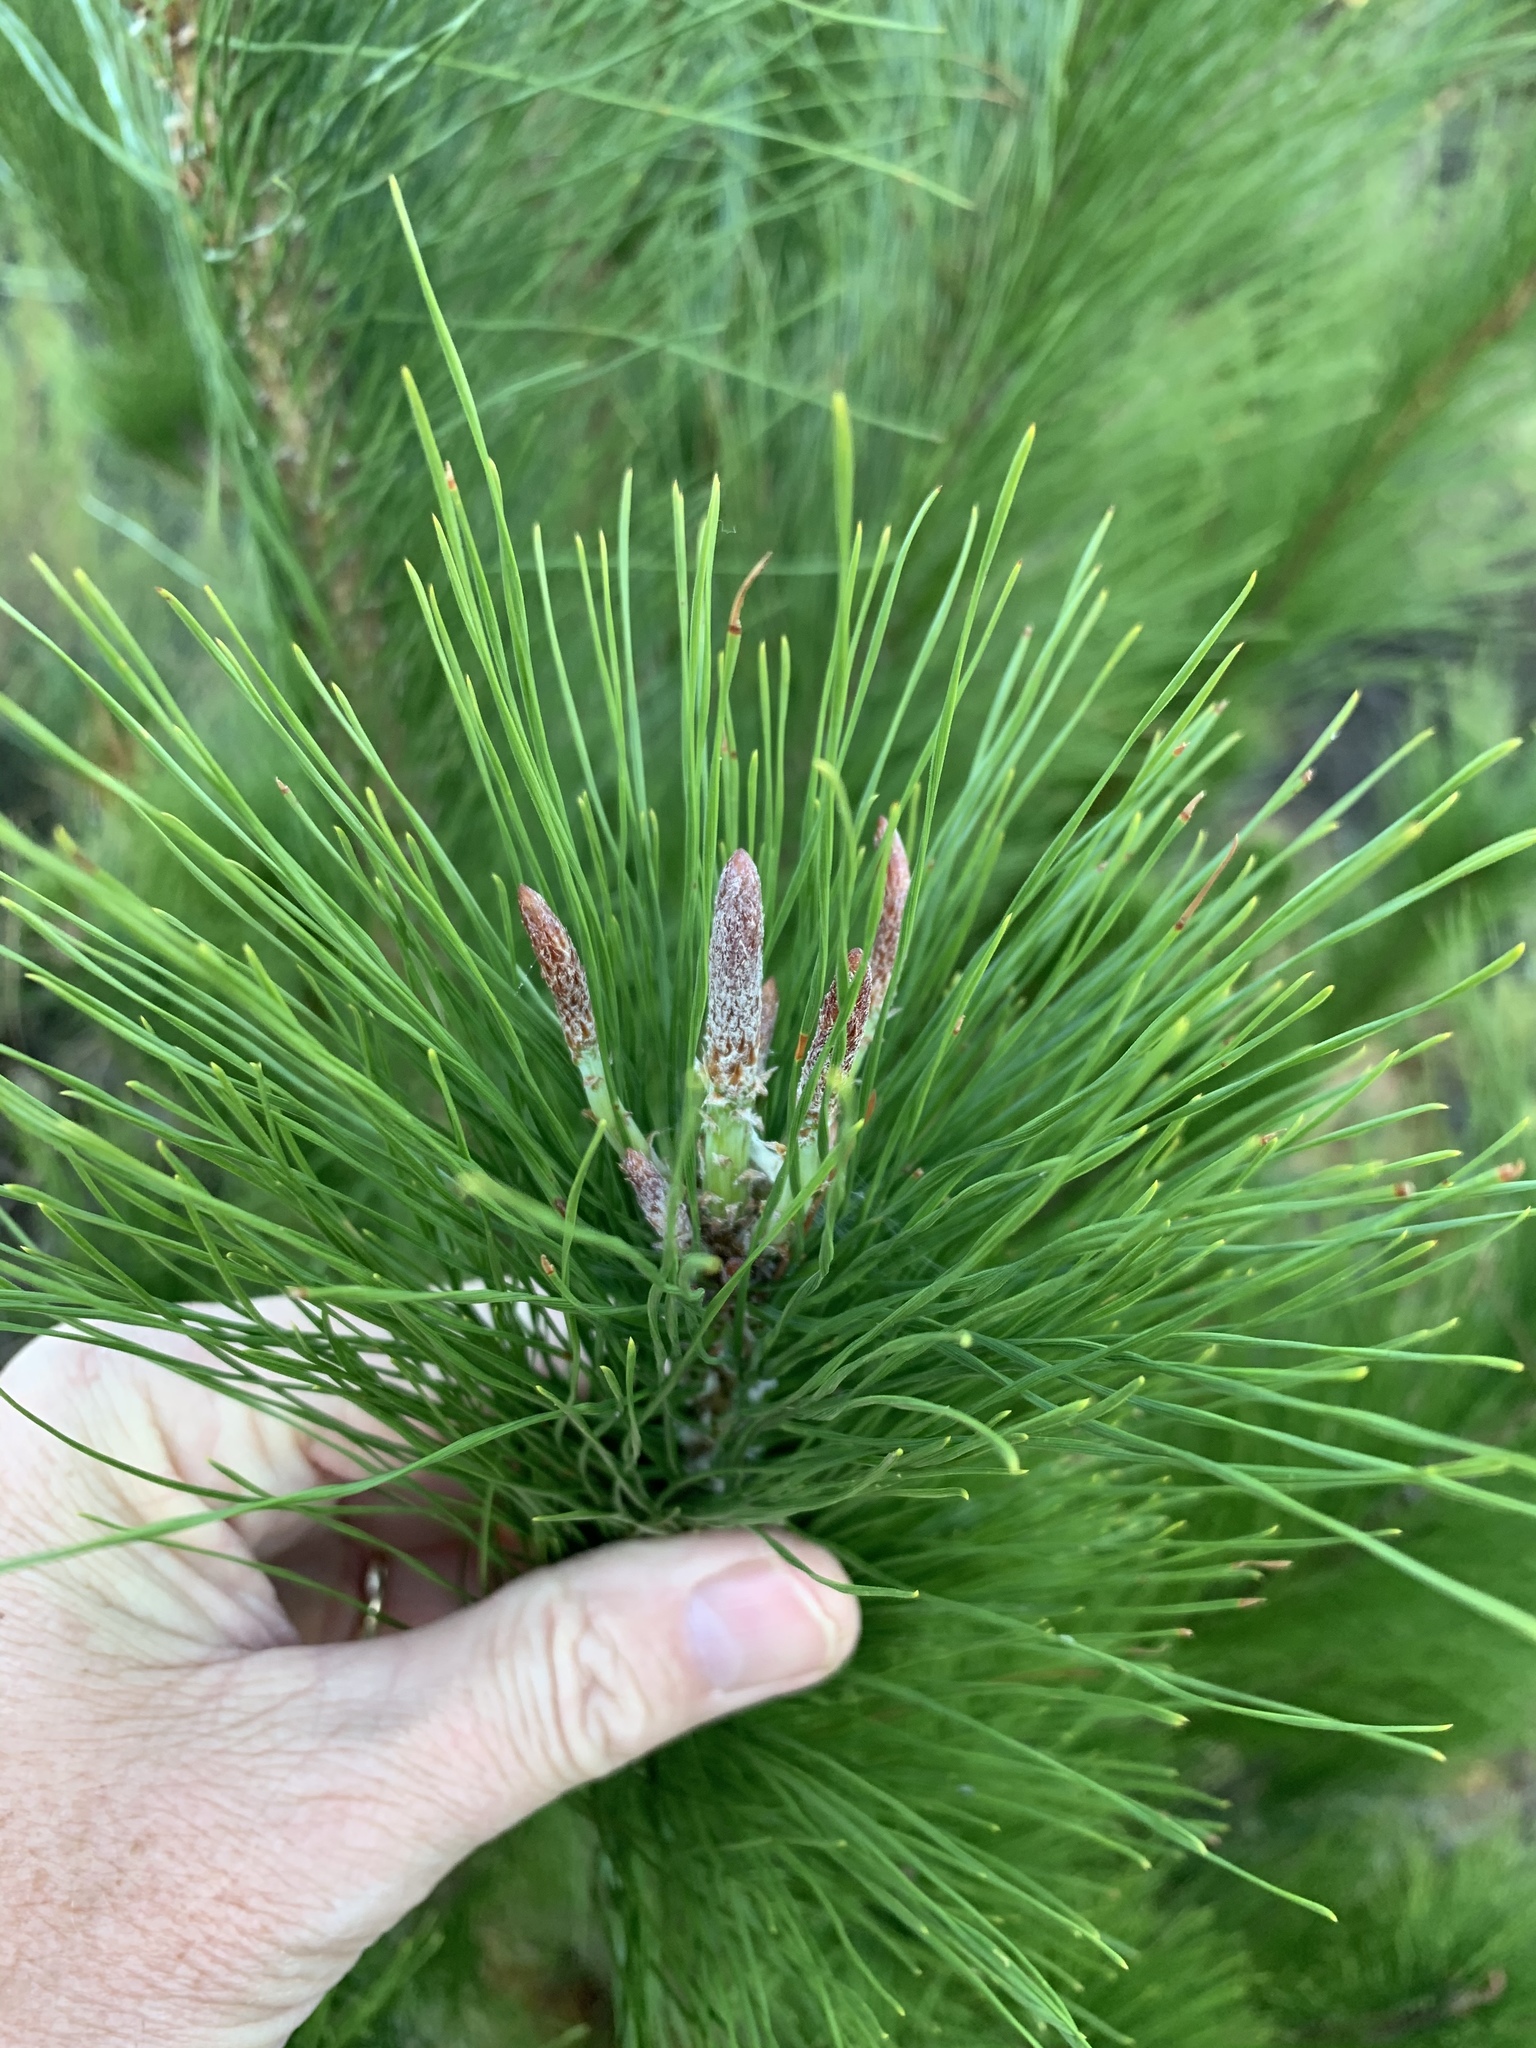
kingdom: Plantae
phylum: Tracheophyta
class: Pinopsida
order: Pinales
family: Pinaceae
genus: Pinus
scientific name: Pinus radiata
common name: Monterey pine
